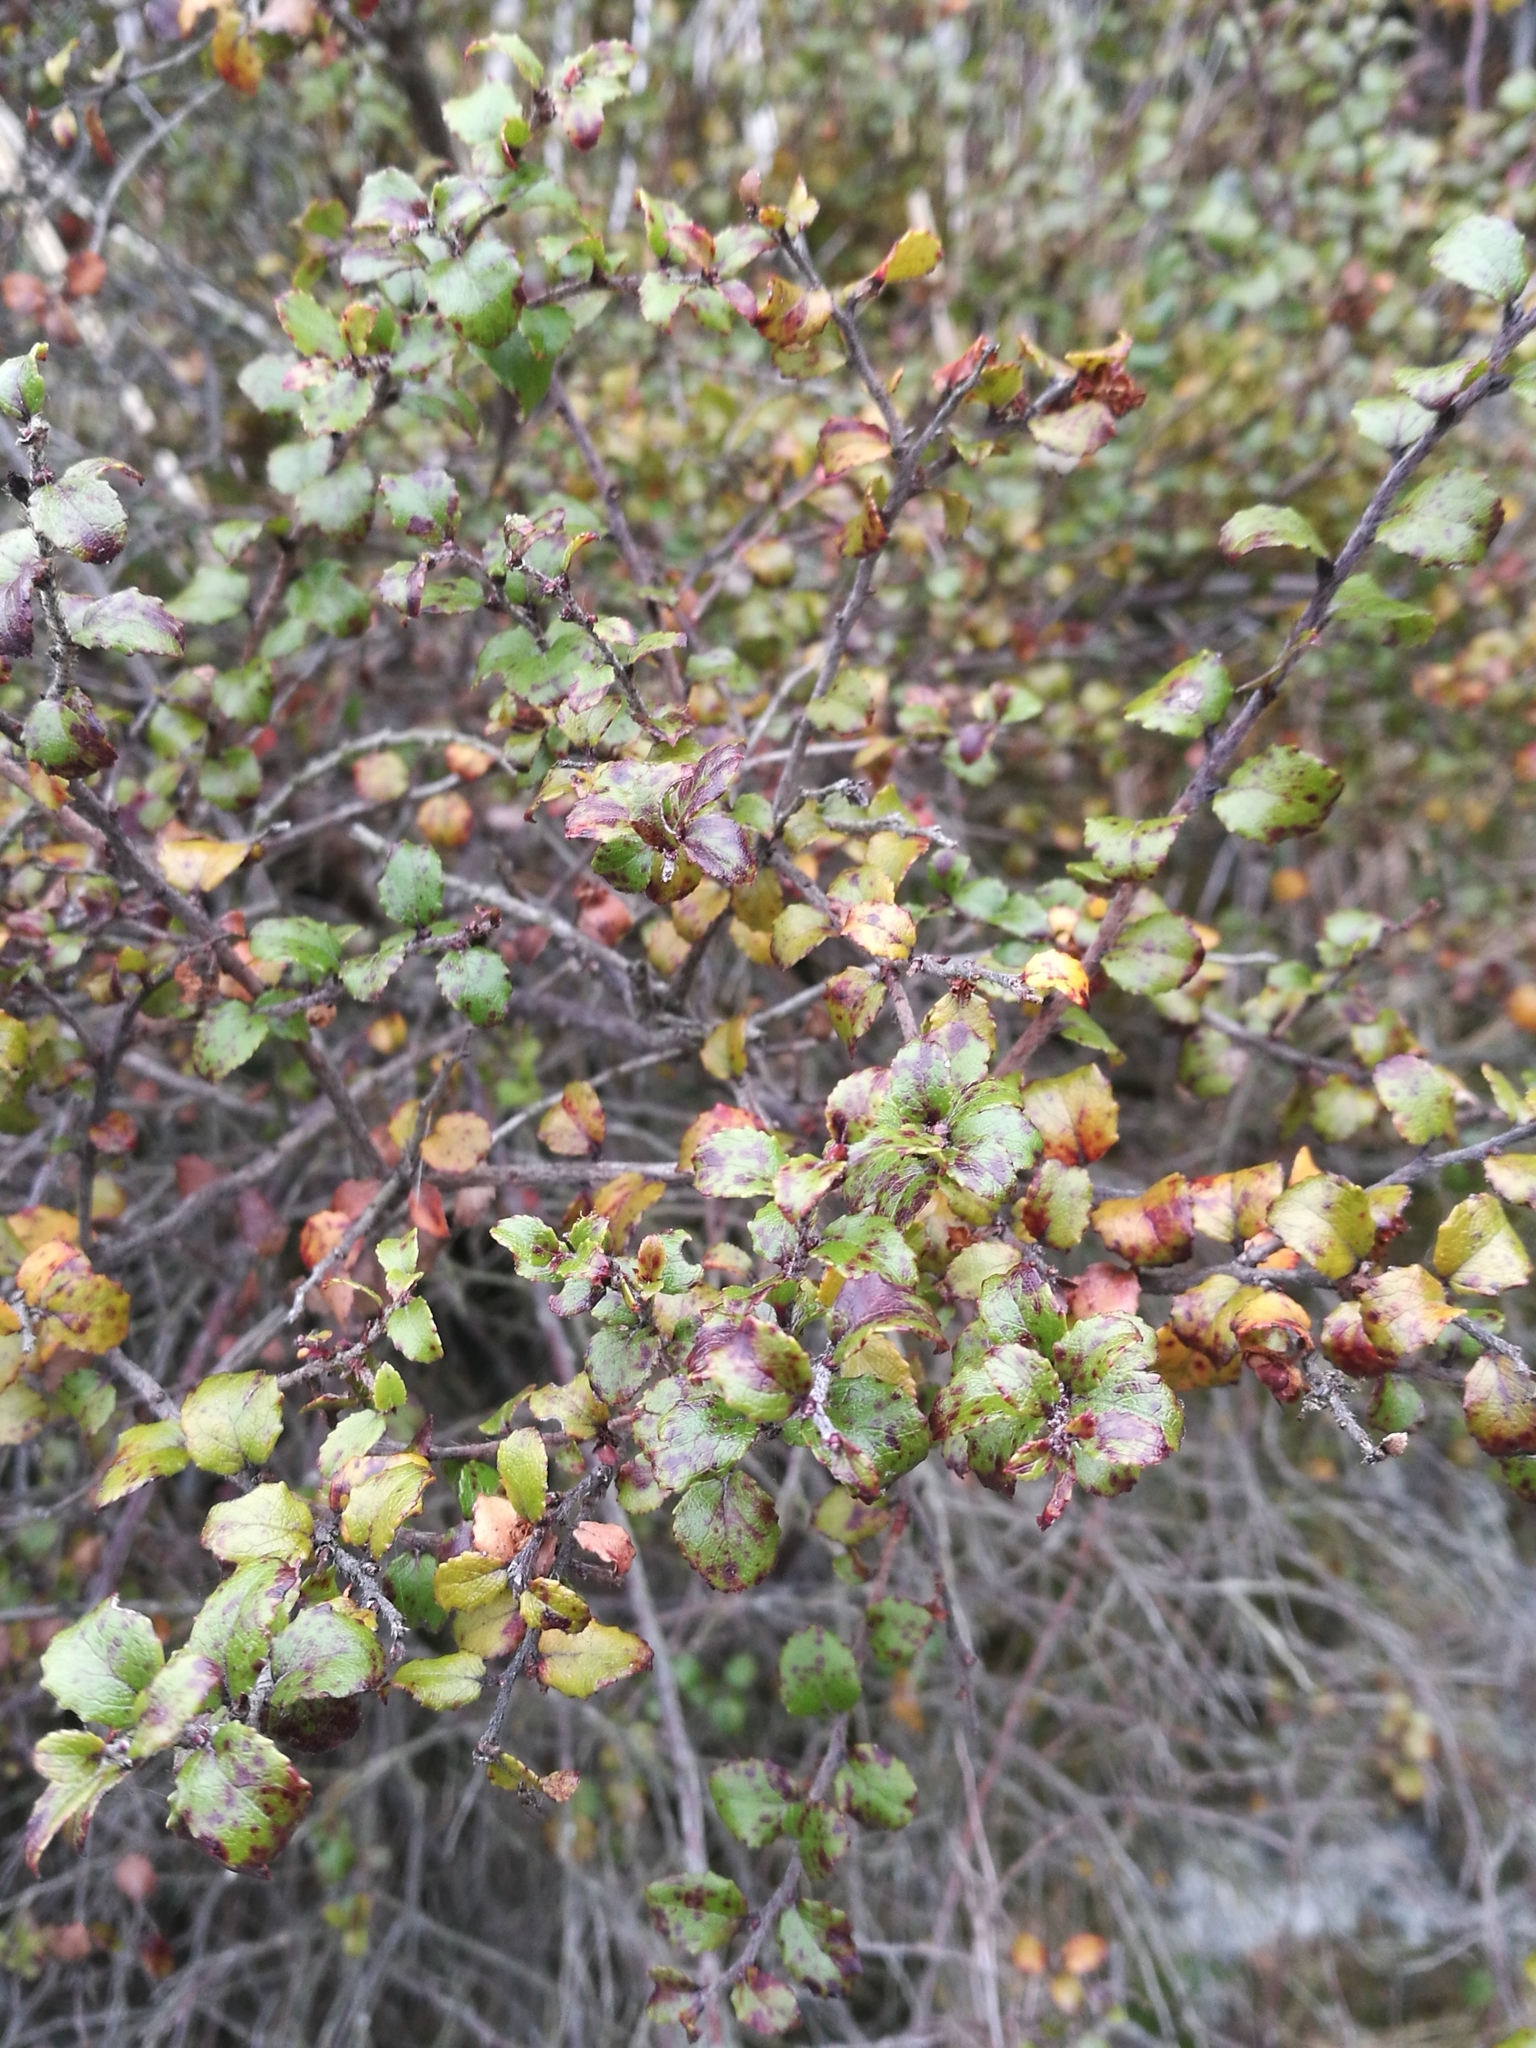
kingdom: Plantae
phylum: Tracheophyta
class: Magnoliopsida
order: Ericales
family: Ericaceae
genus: Gaultheria
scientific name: Gaultheria antipoda
